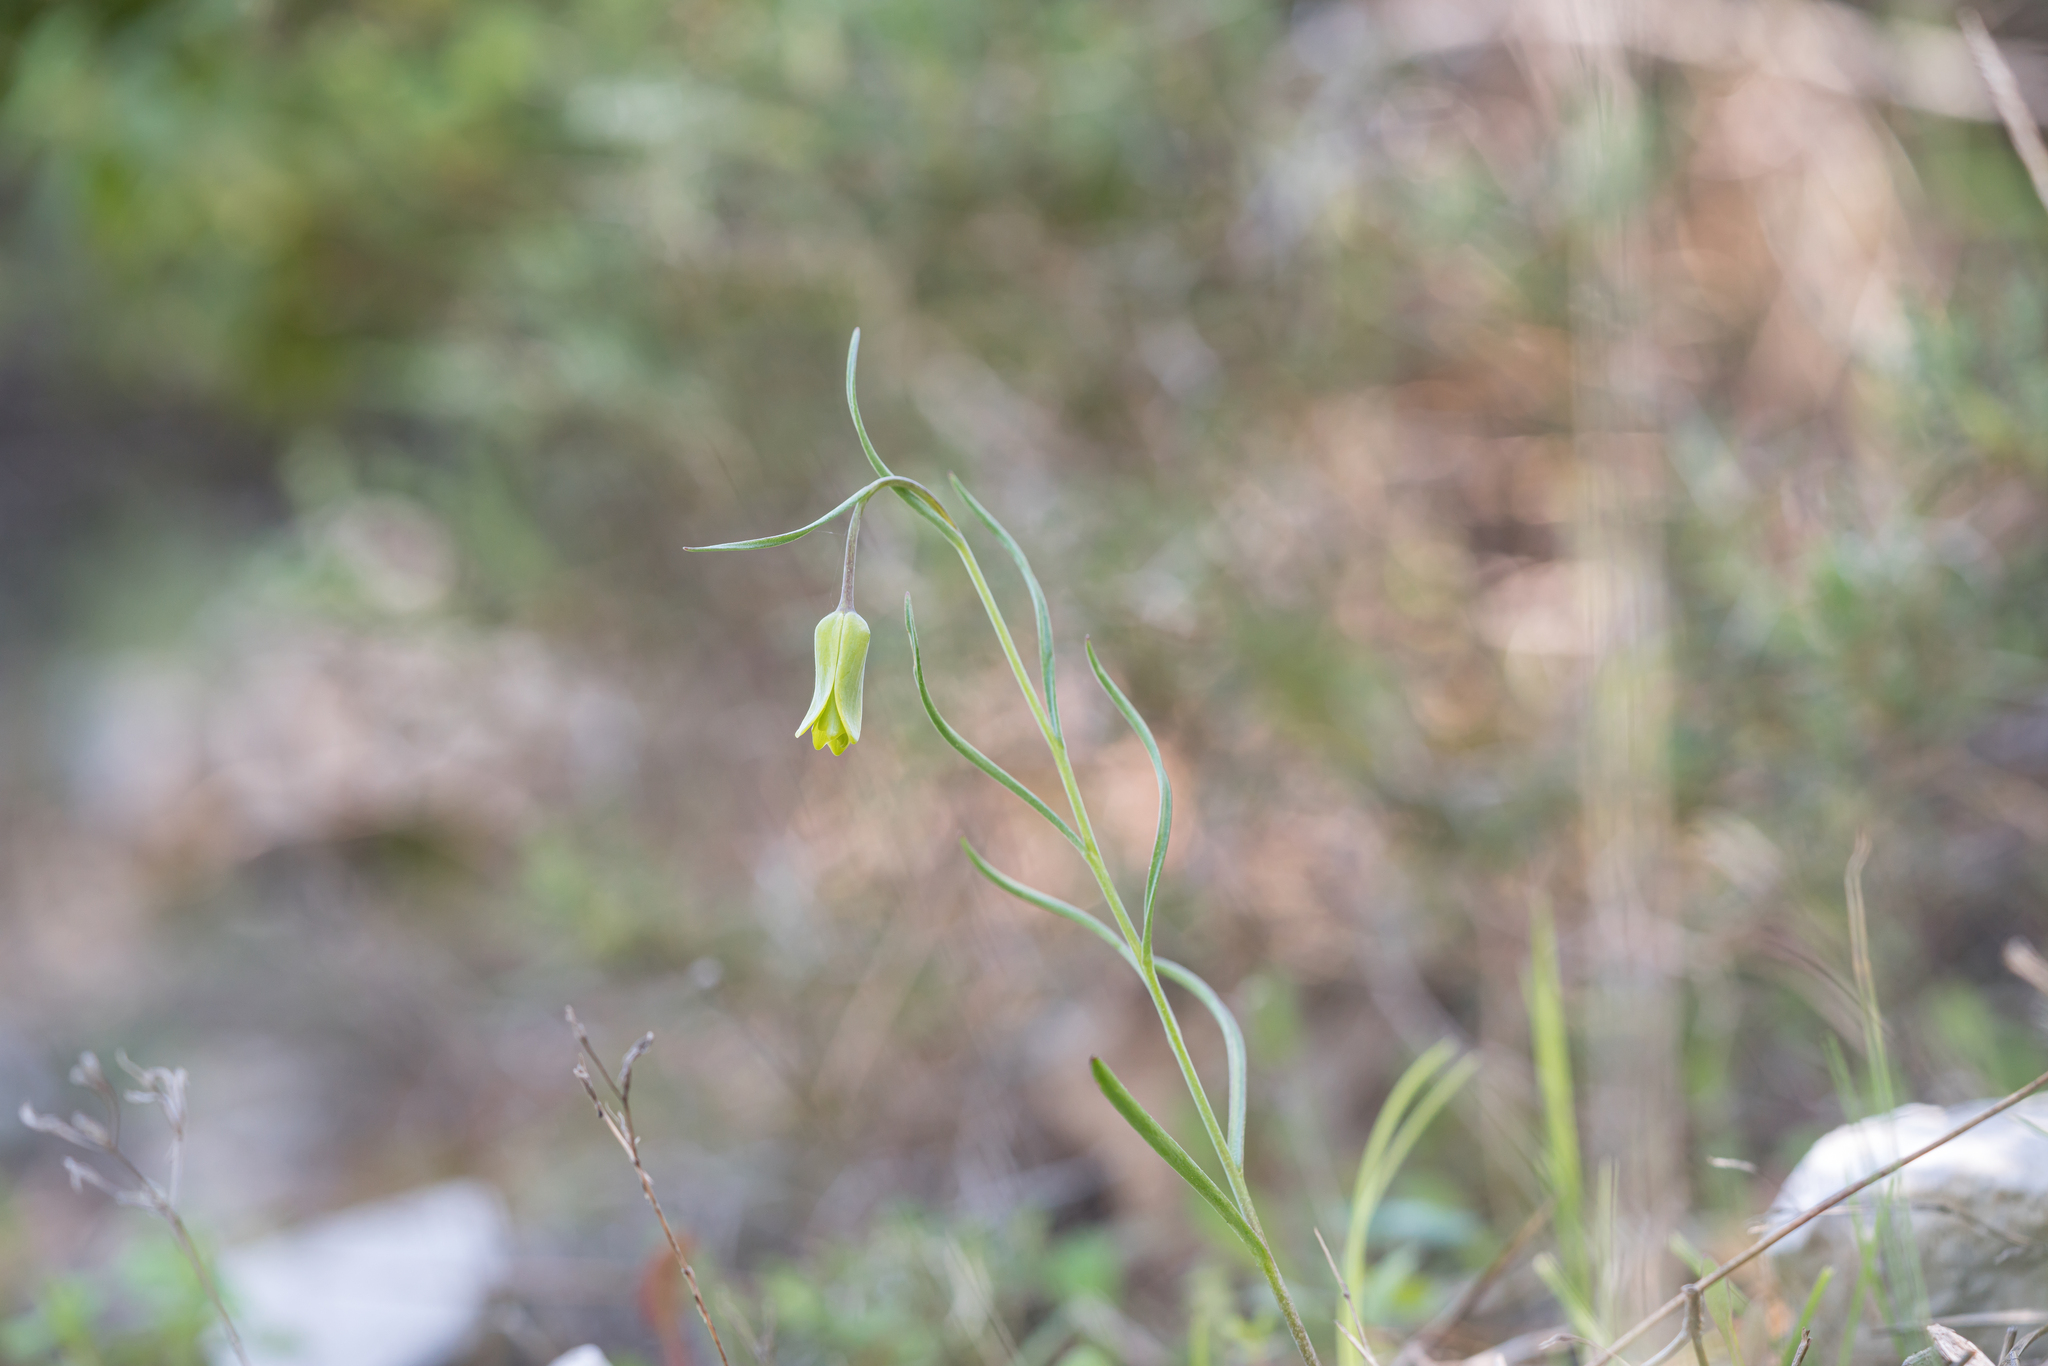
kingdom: Plantae
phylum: Tracheophyta
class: Liliopsida
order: Liliales
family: Liliaceae
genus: Fritillaria
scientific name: Fritillaria rhodia
